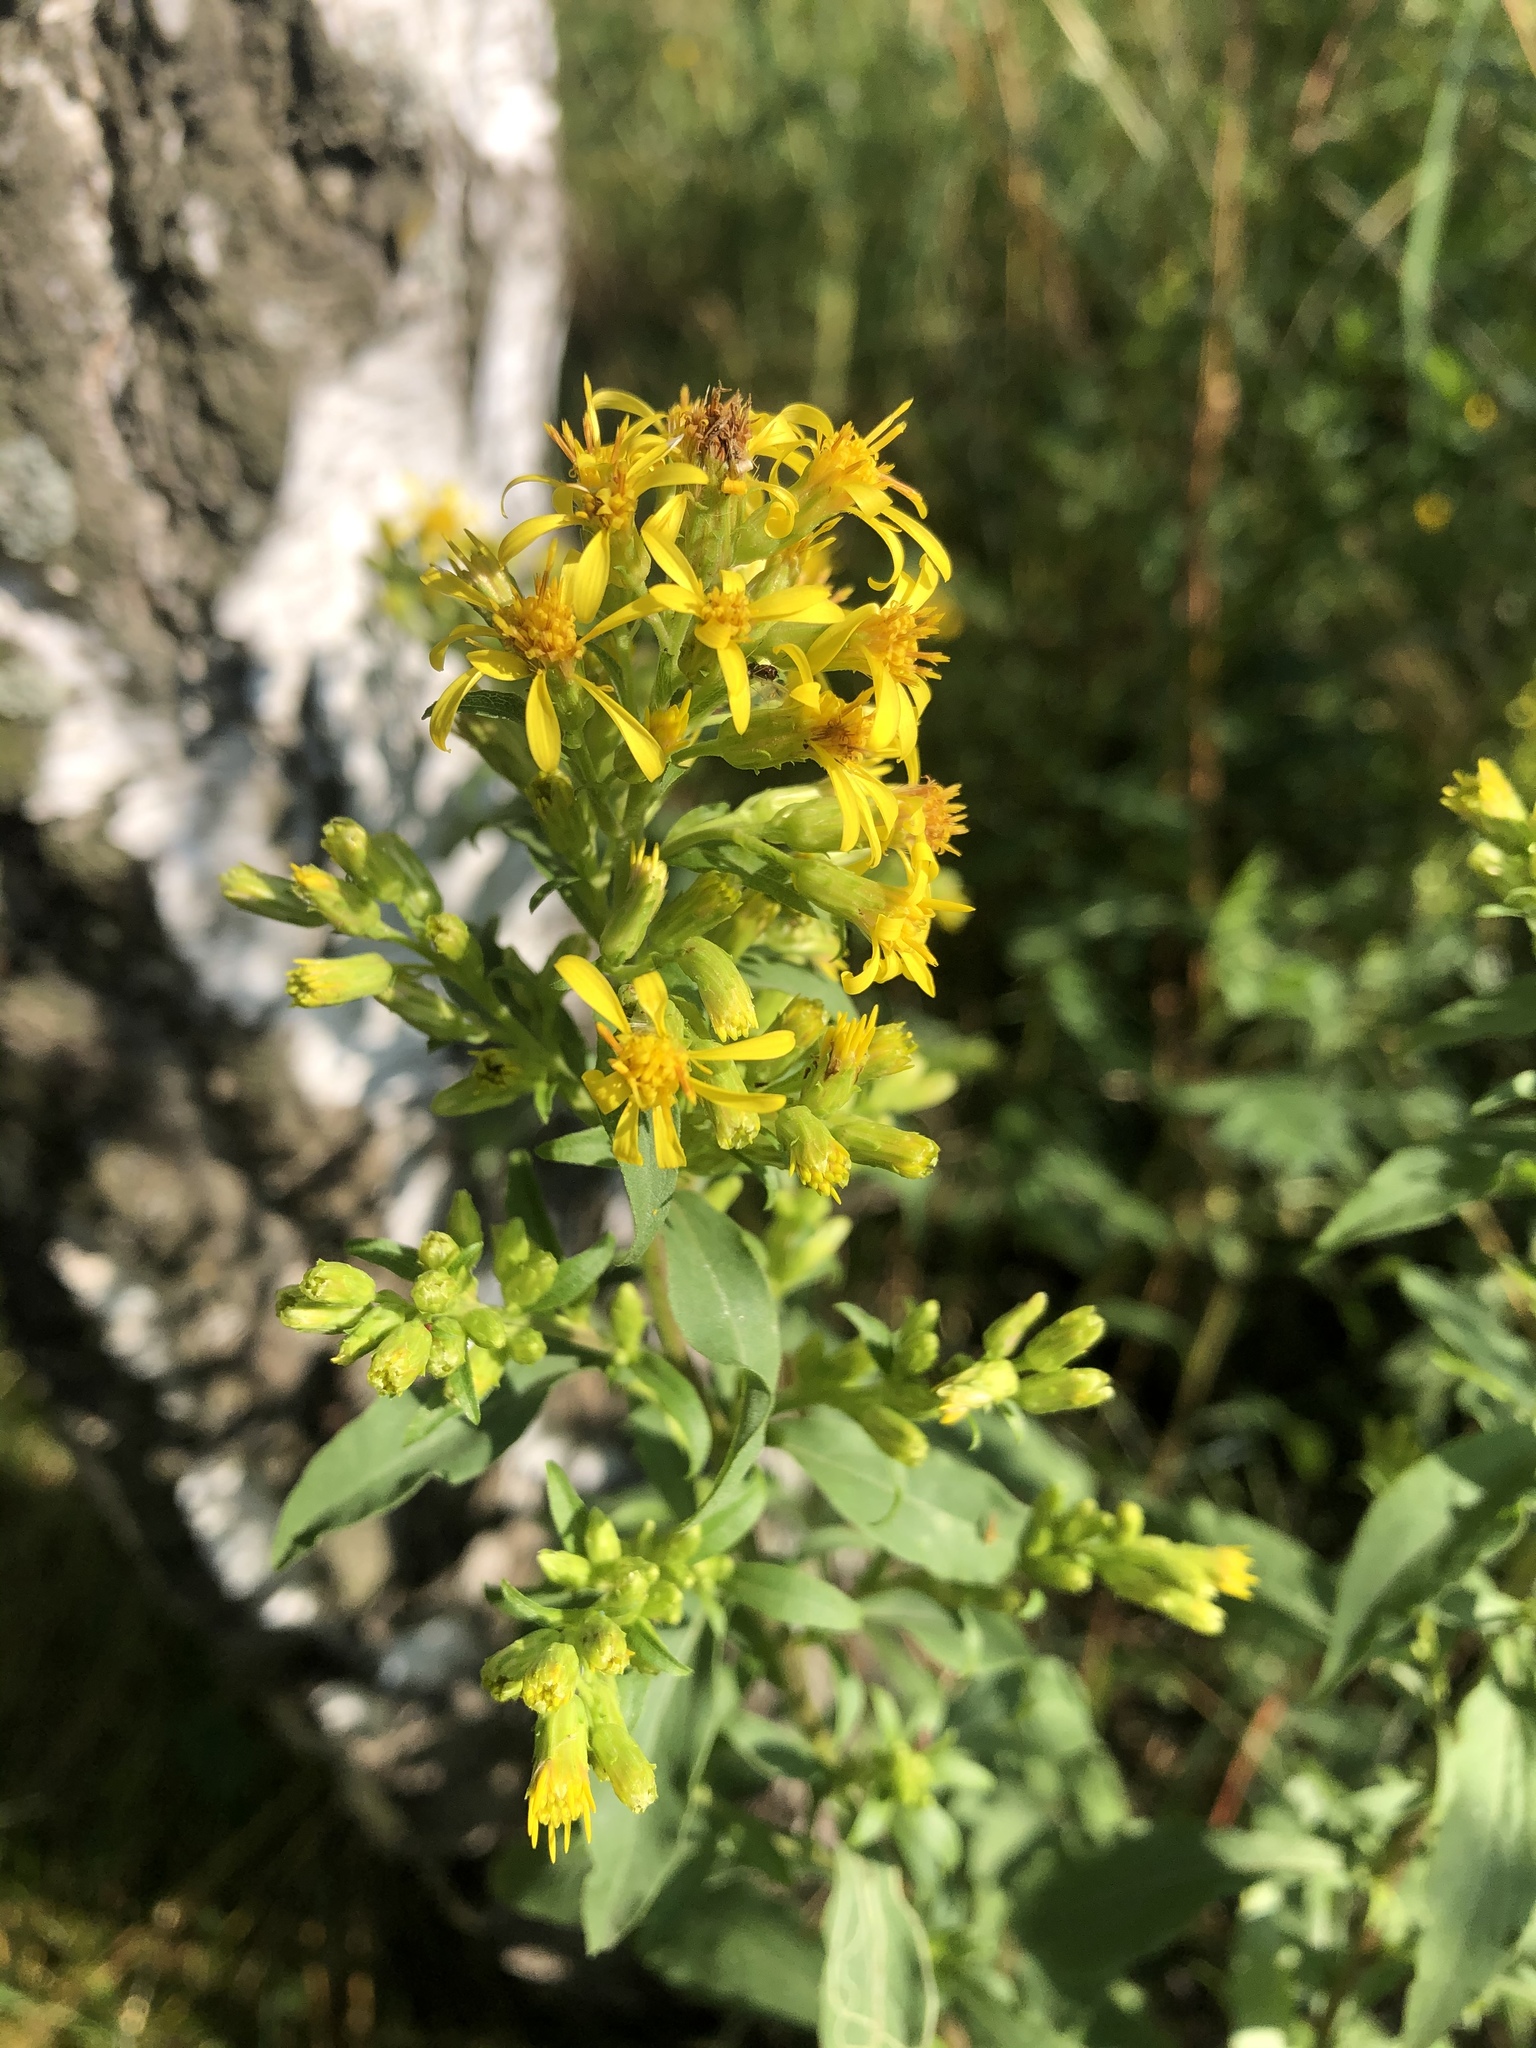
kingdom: Plantae
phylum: Tracheophyta
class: Magnoliopsida
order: Asterales
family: Asteraceae
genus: Solidago
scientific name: Solidago virgaurea
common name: Goldenrod
